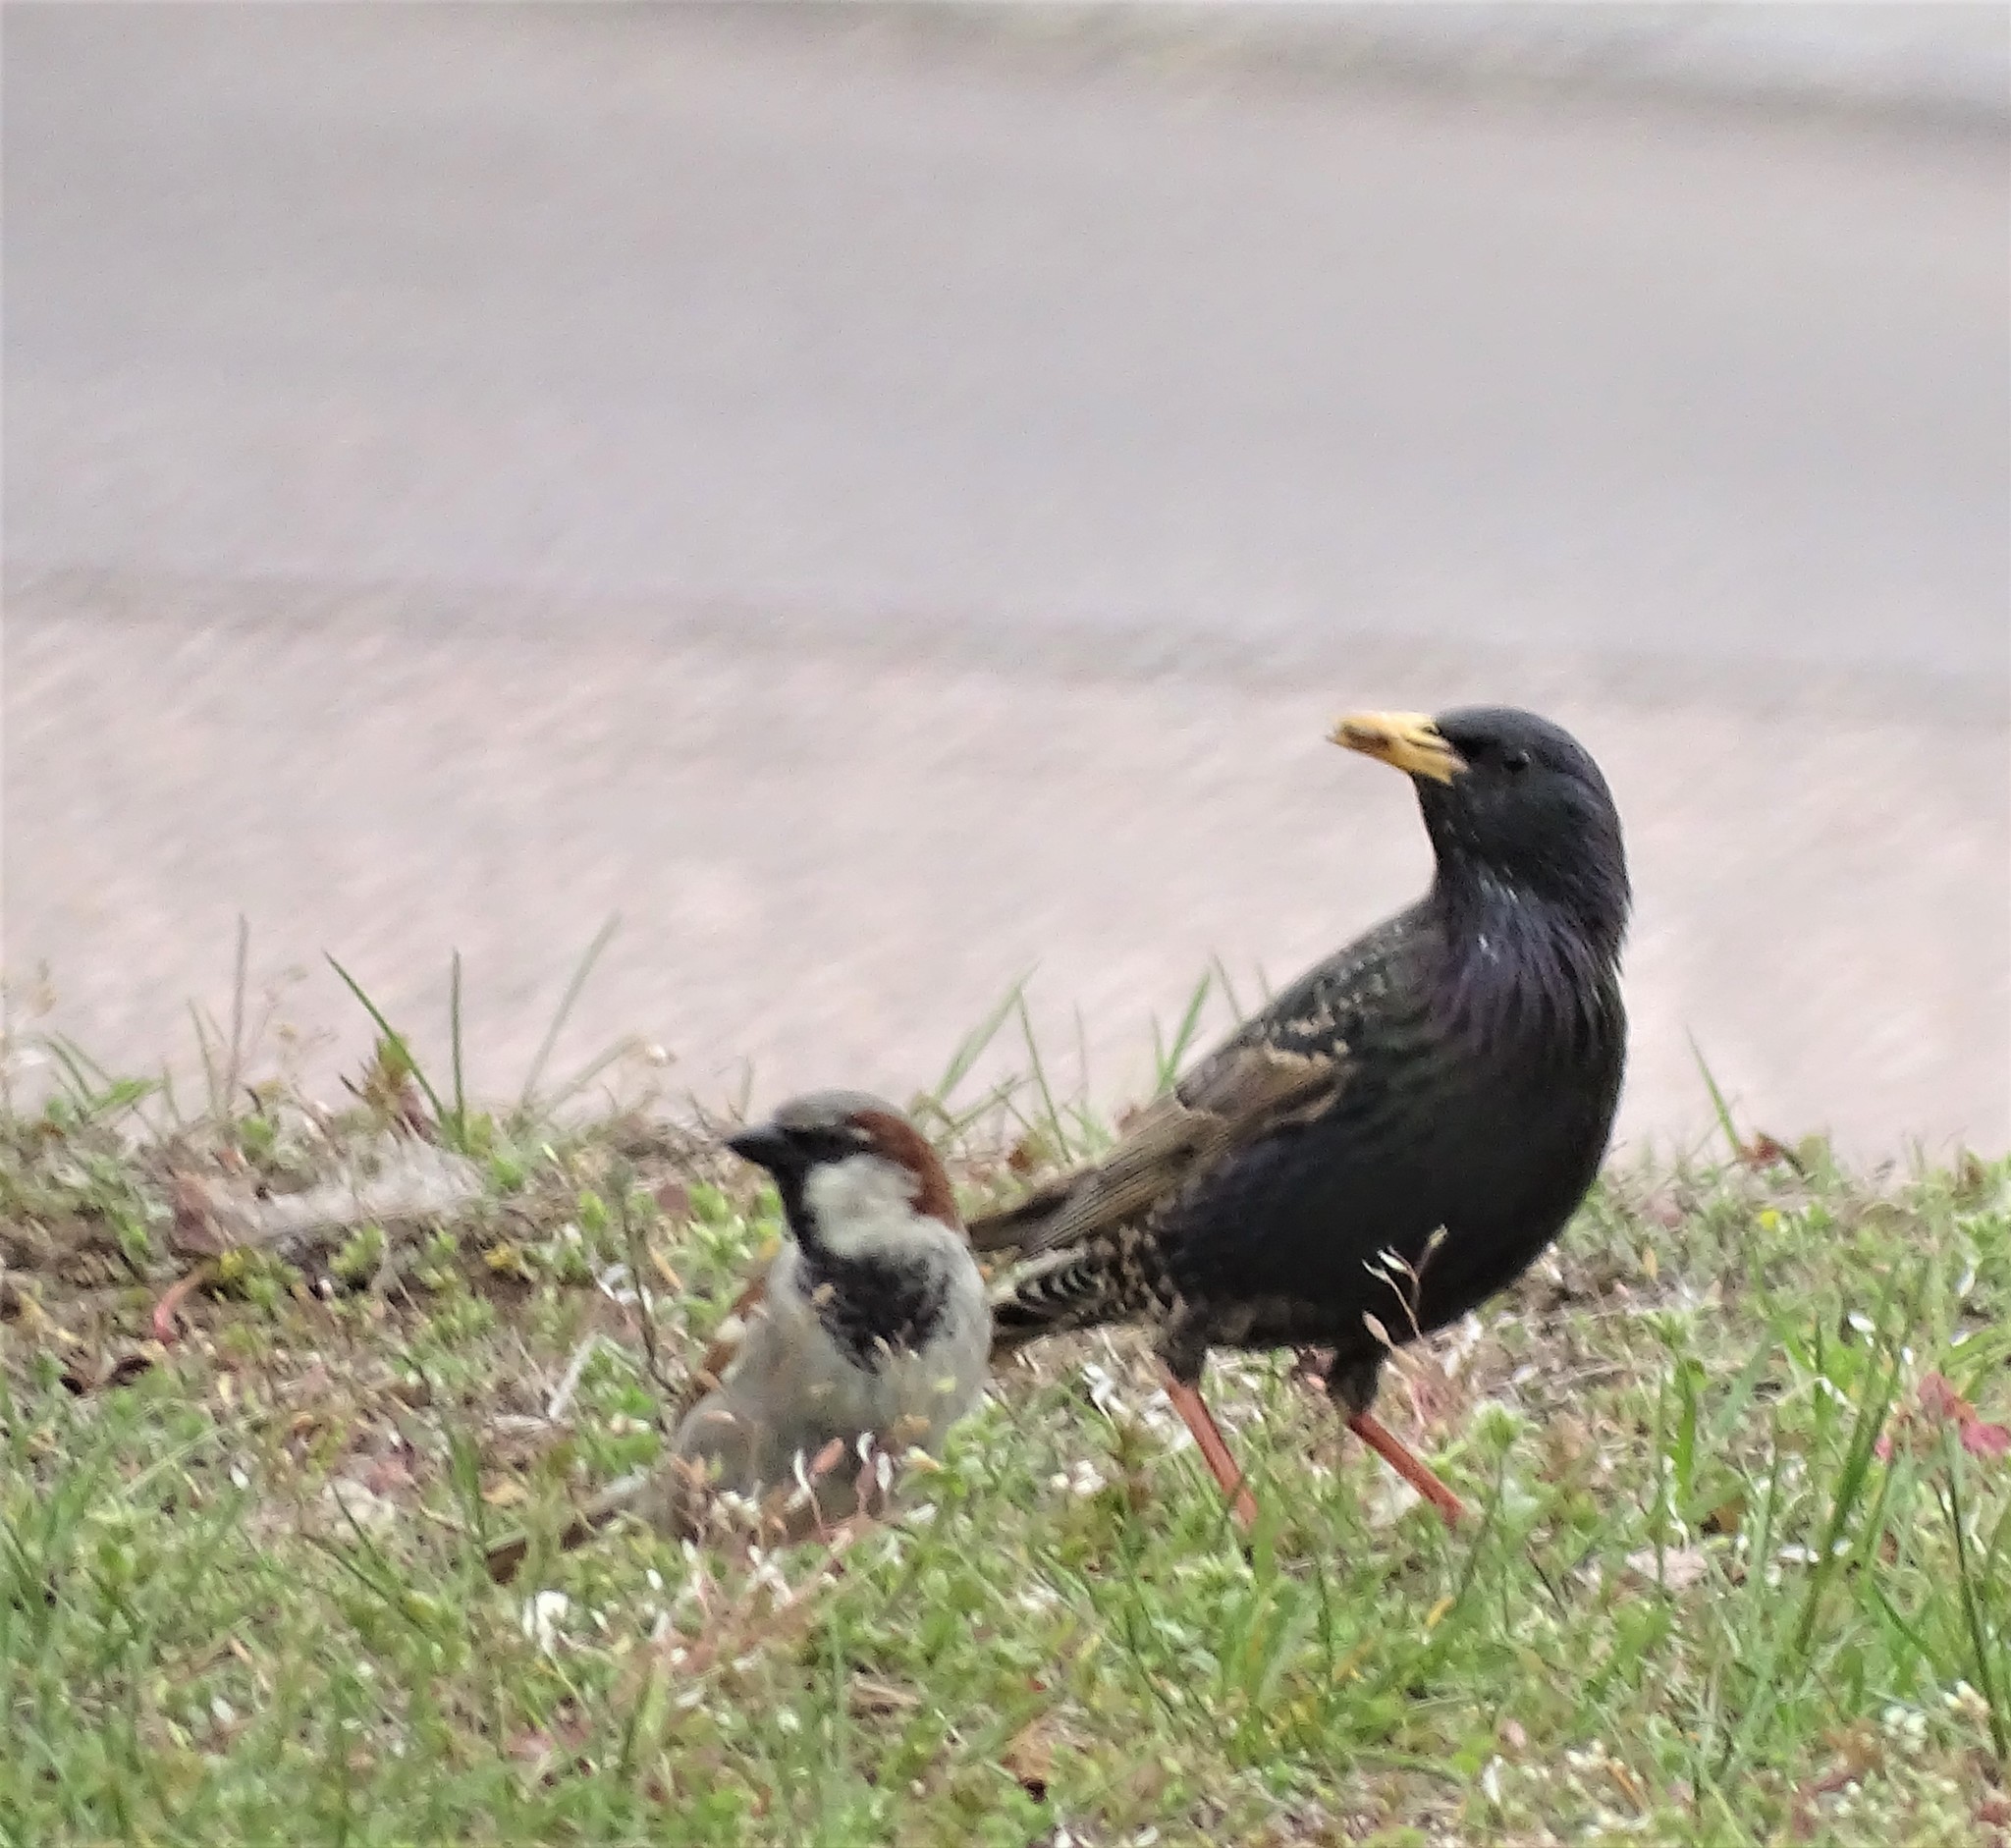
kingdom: Animalia
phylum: Chordata
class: Aves
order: Passeriformes
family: Sturnidae
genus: Sturnus
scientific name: Sturnus vulgaris
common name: Common starling
